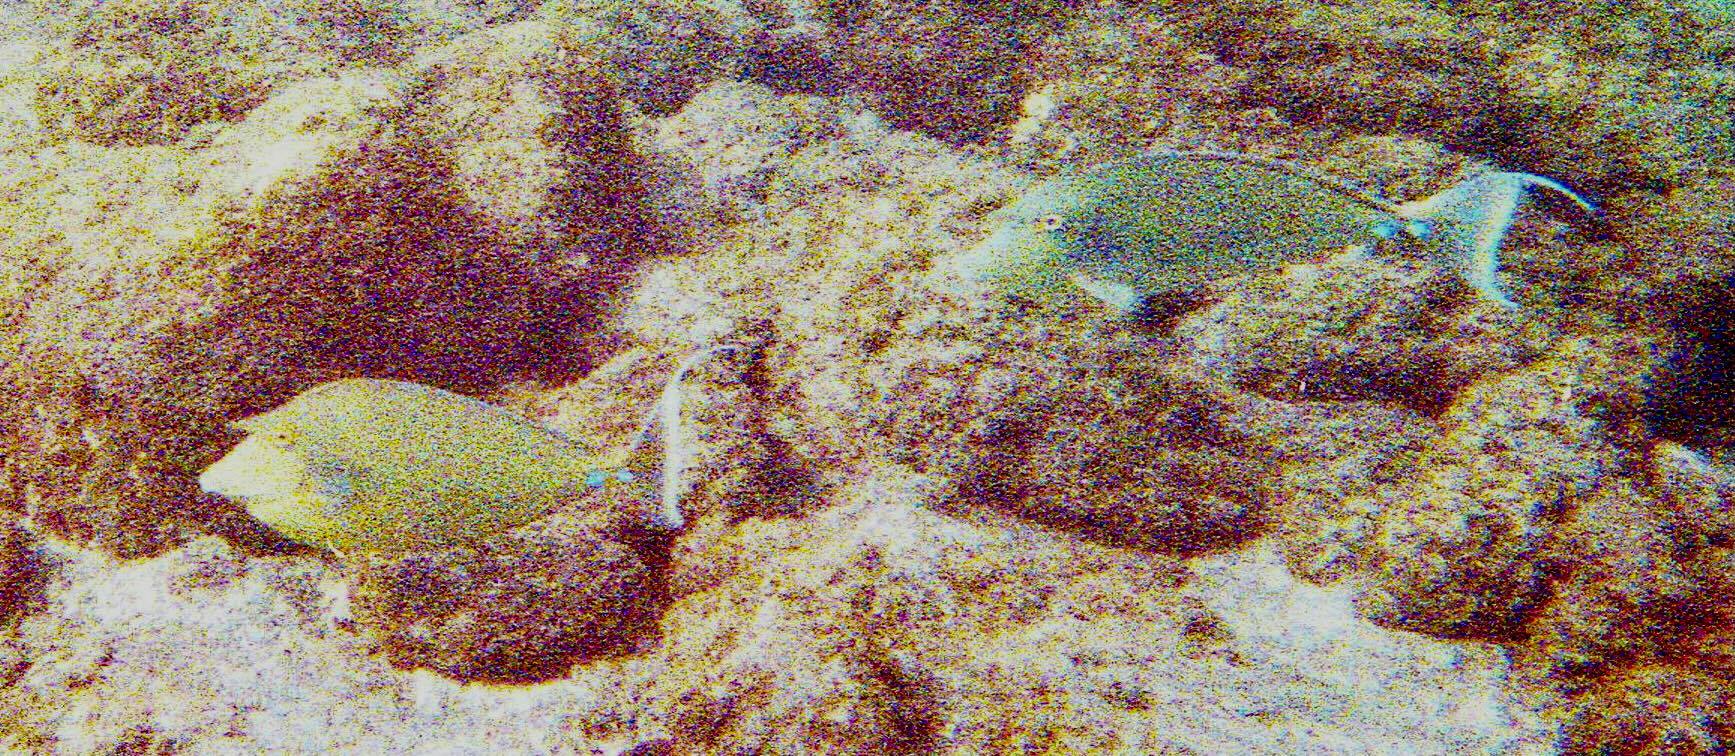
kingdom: Animalia
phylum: Chordata
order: Perciformes
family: Acanthuridae
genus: Naso
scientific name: Naso unicornis
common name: Bluespine unicornfish
